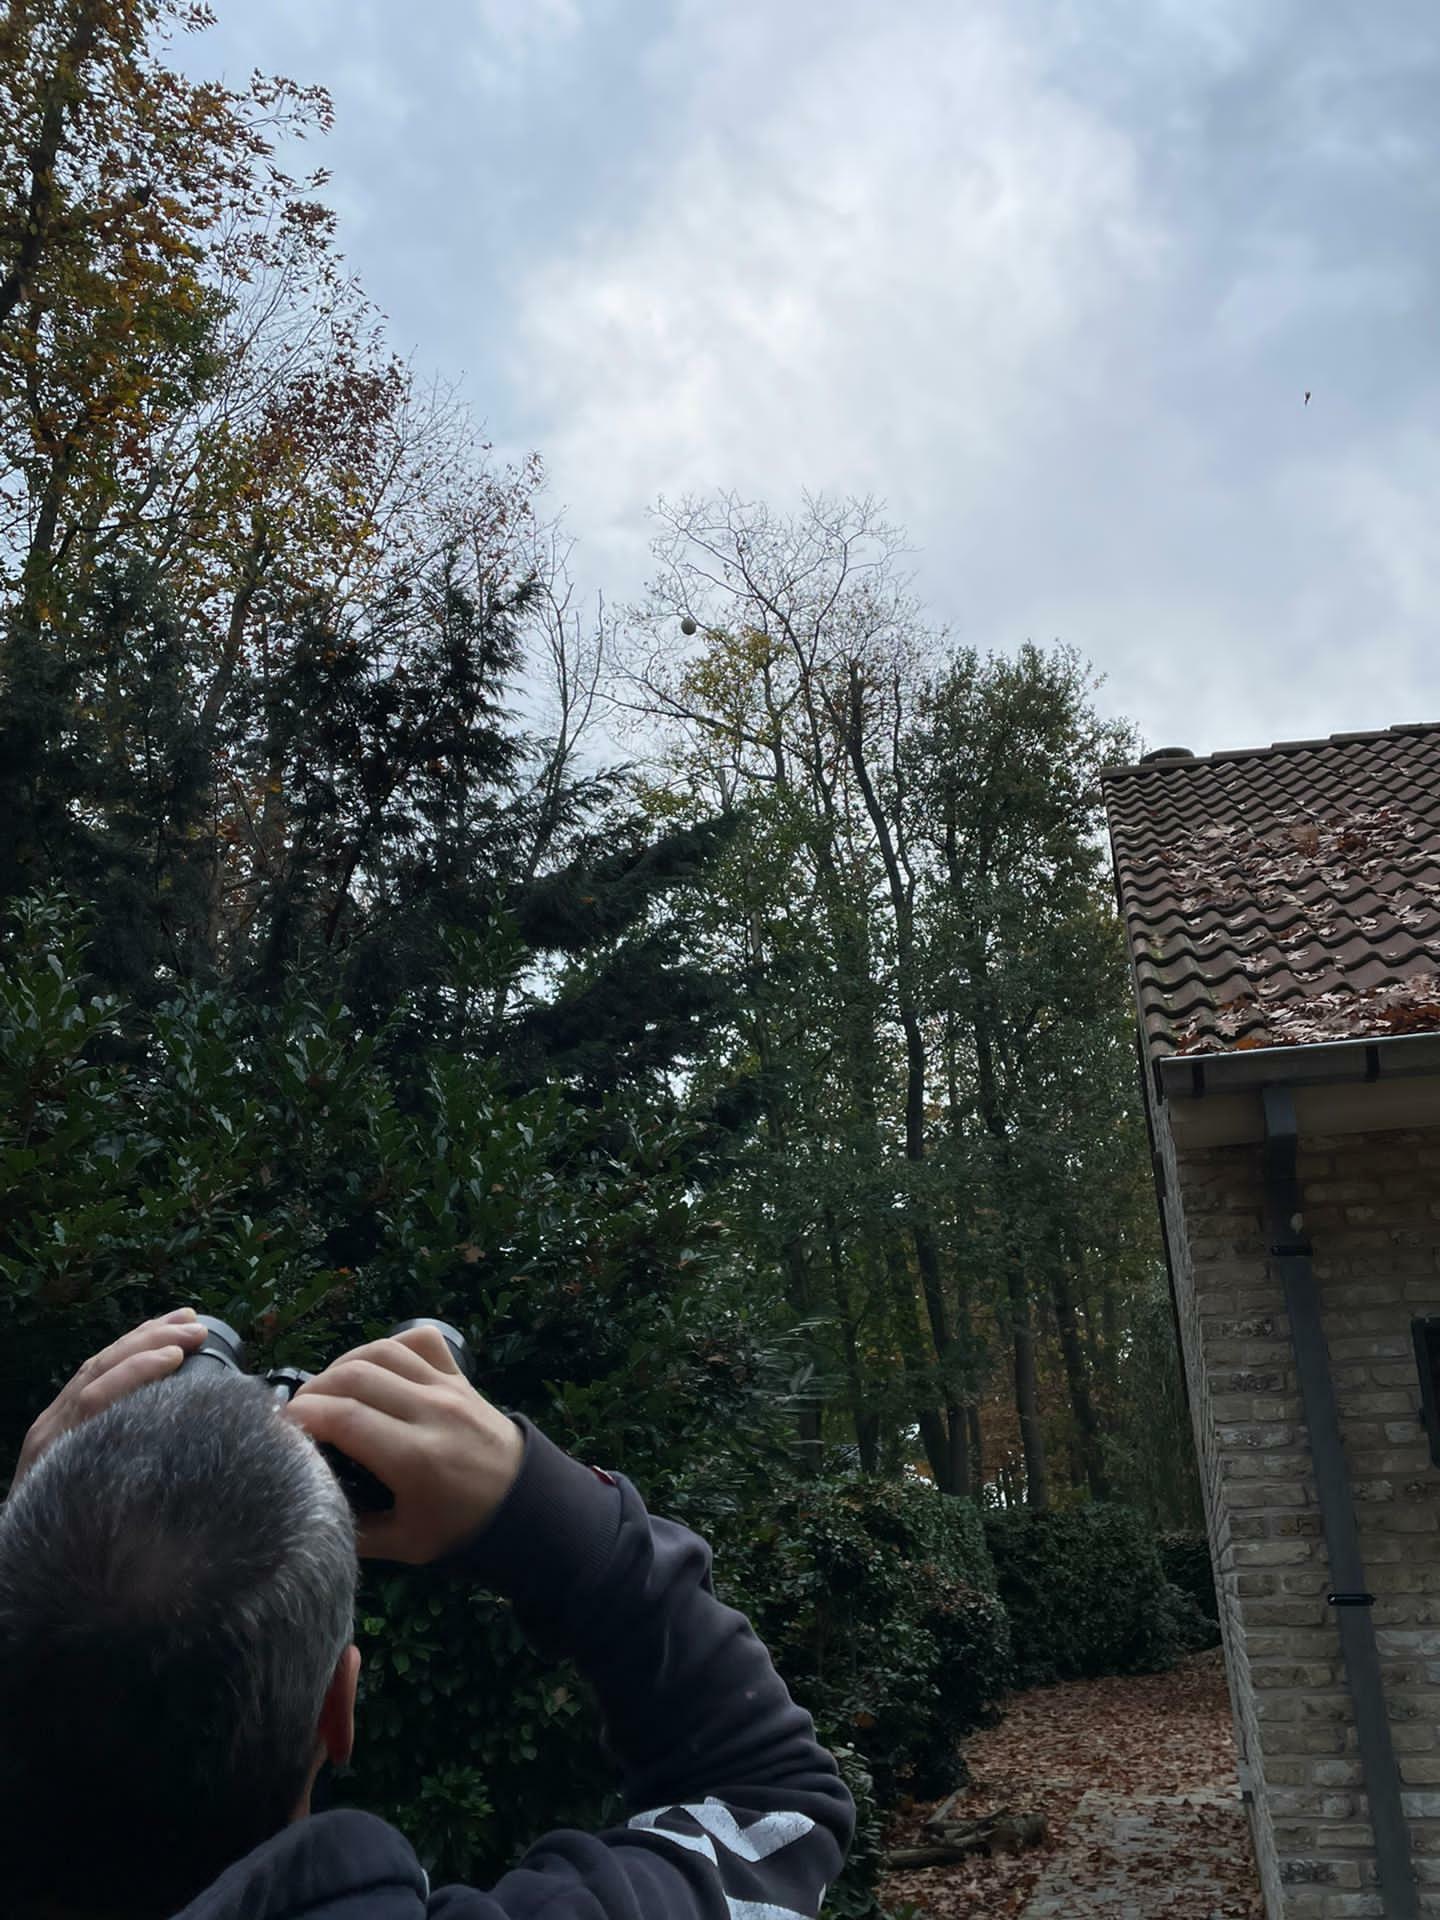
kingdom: Animalia
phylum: Arthropoda
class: Insecta
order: Hymenoptera
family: Vespidae
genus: Vespa
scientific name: Vespa velutina
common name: Asian hornet
